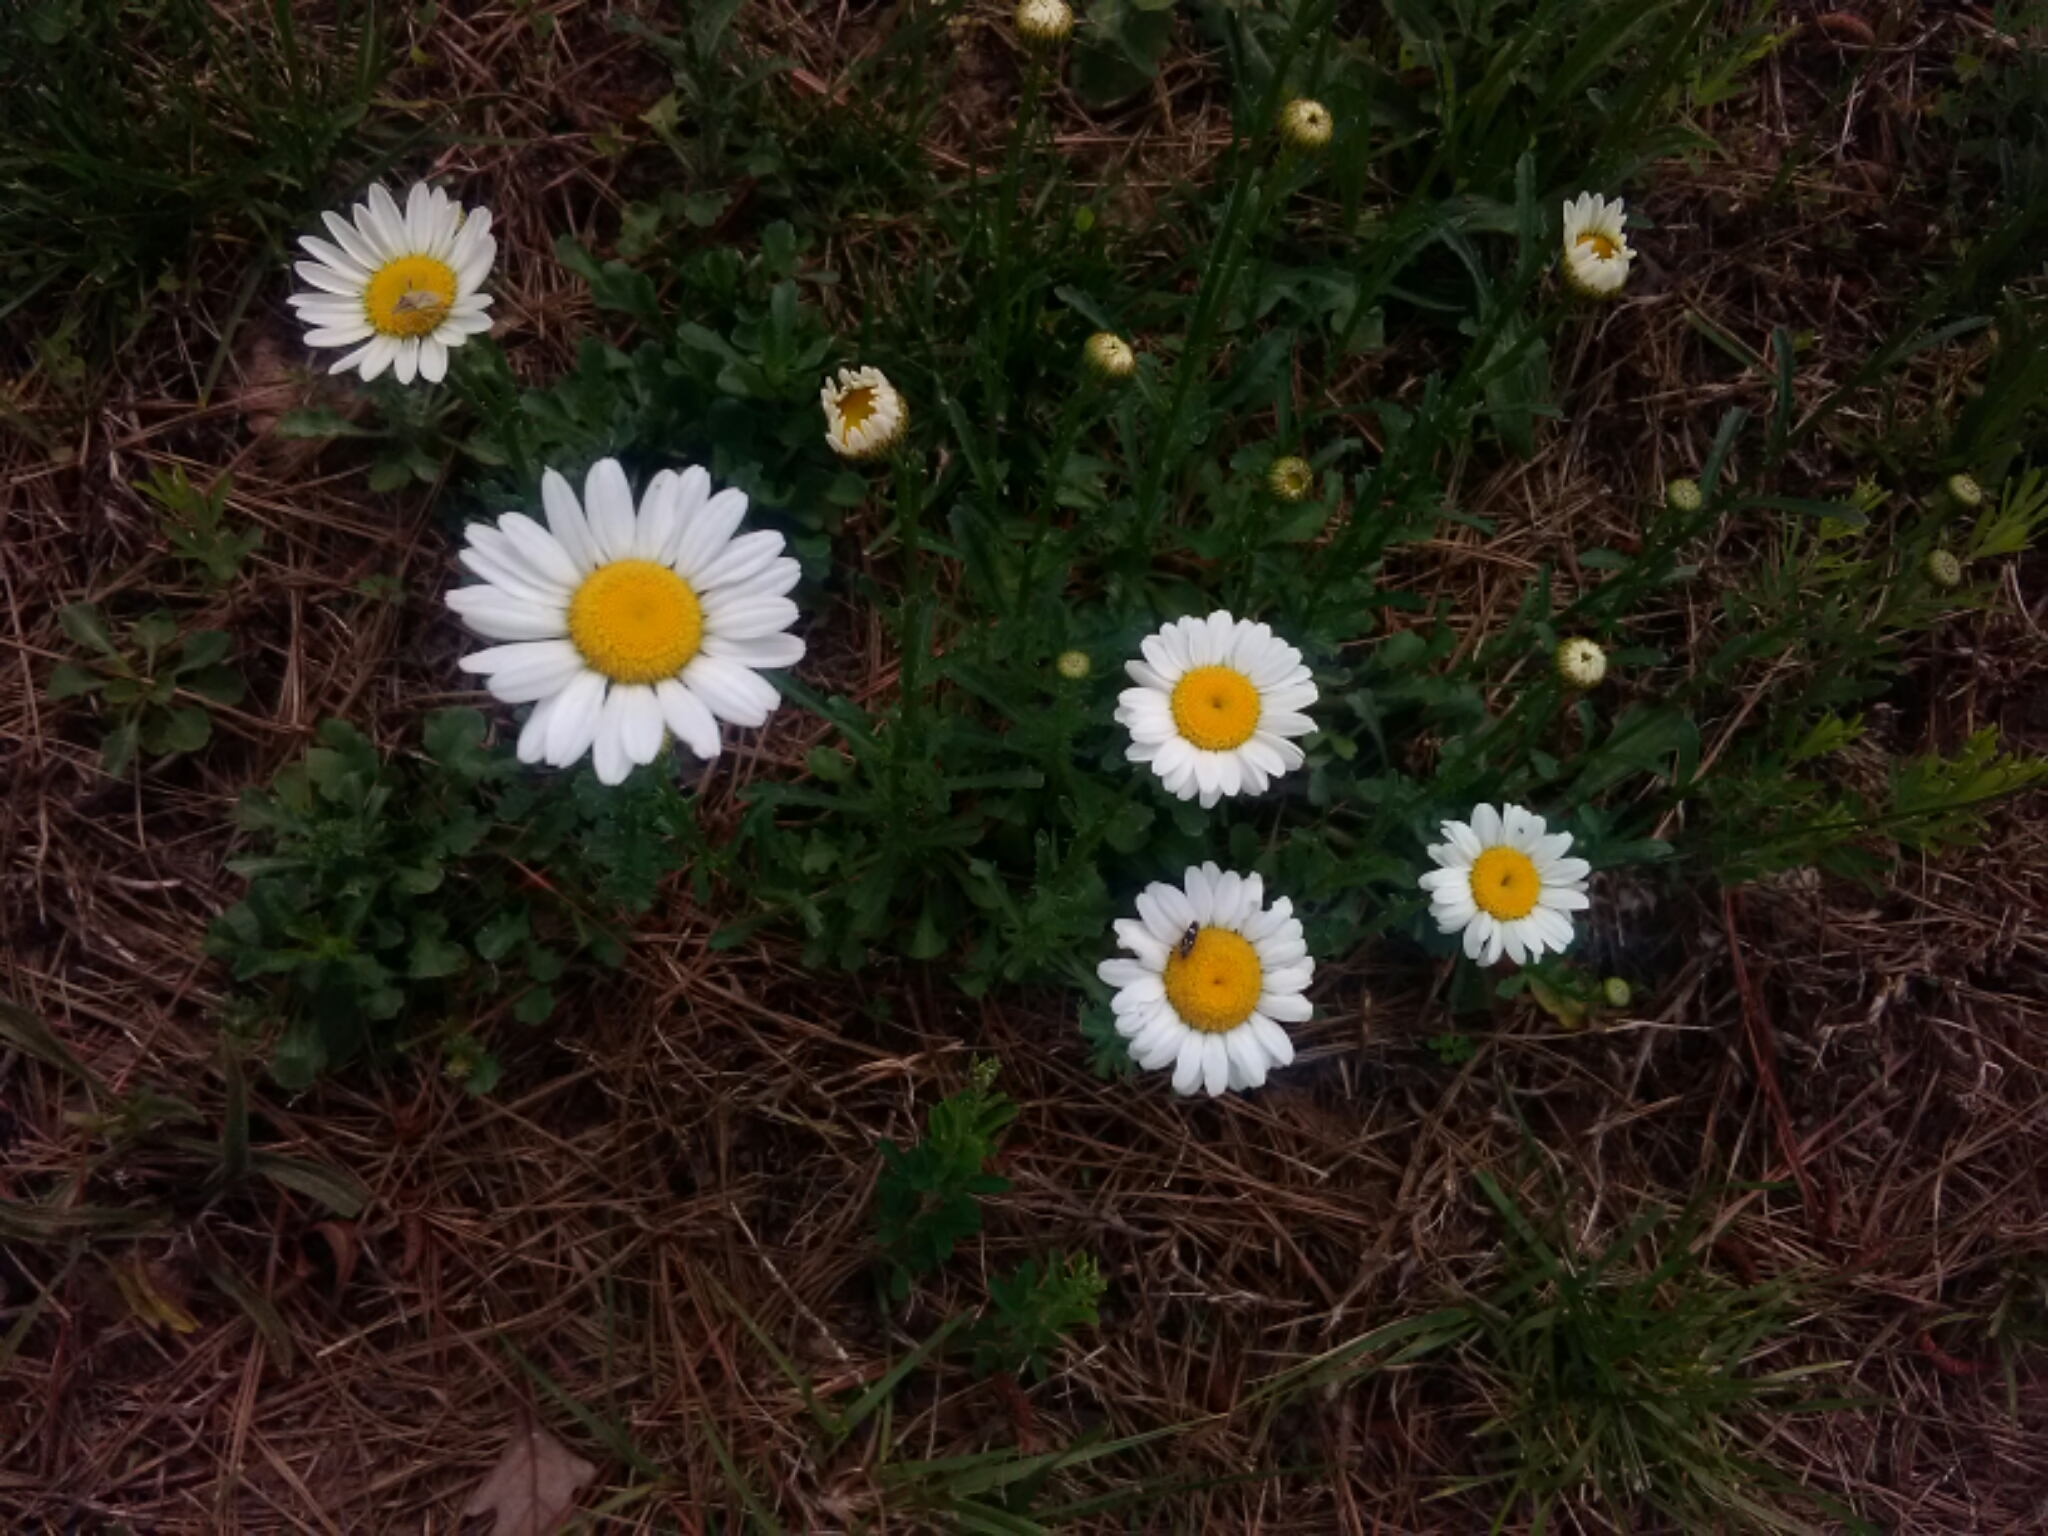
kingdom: Plantae
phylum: Tracheophyta
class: Magnoliopsida
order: Asterales
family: Asteraceae
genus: Leucanthemum
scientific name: Leucanthemum vulgare
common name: Oxeye daisy
